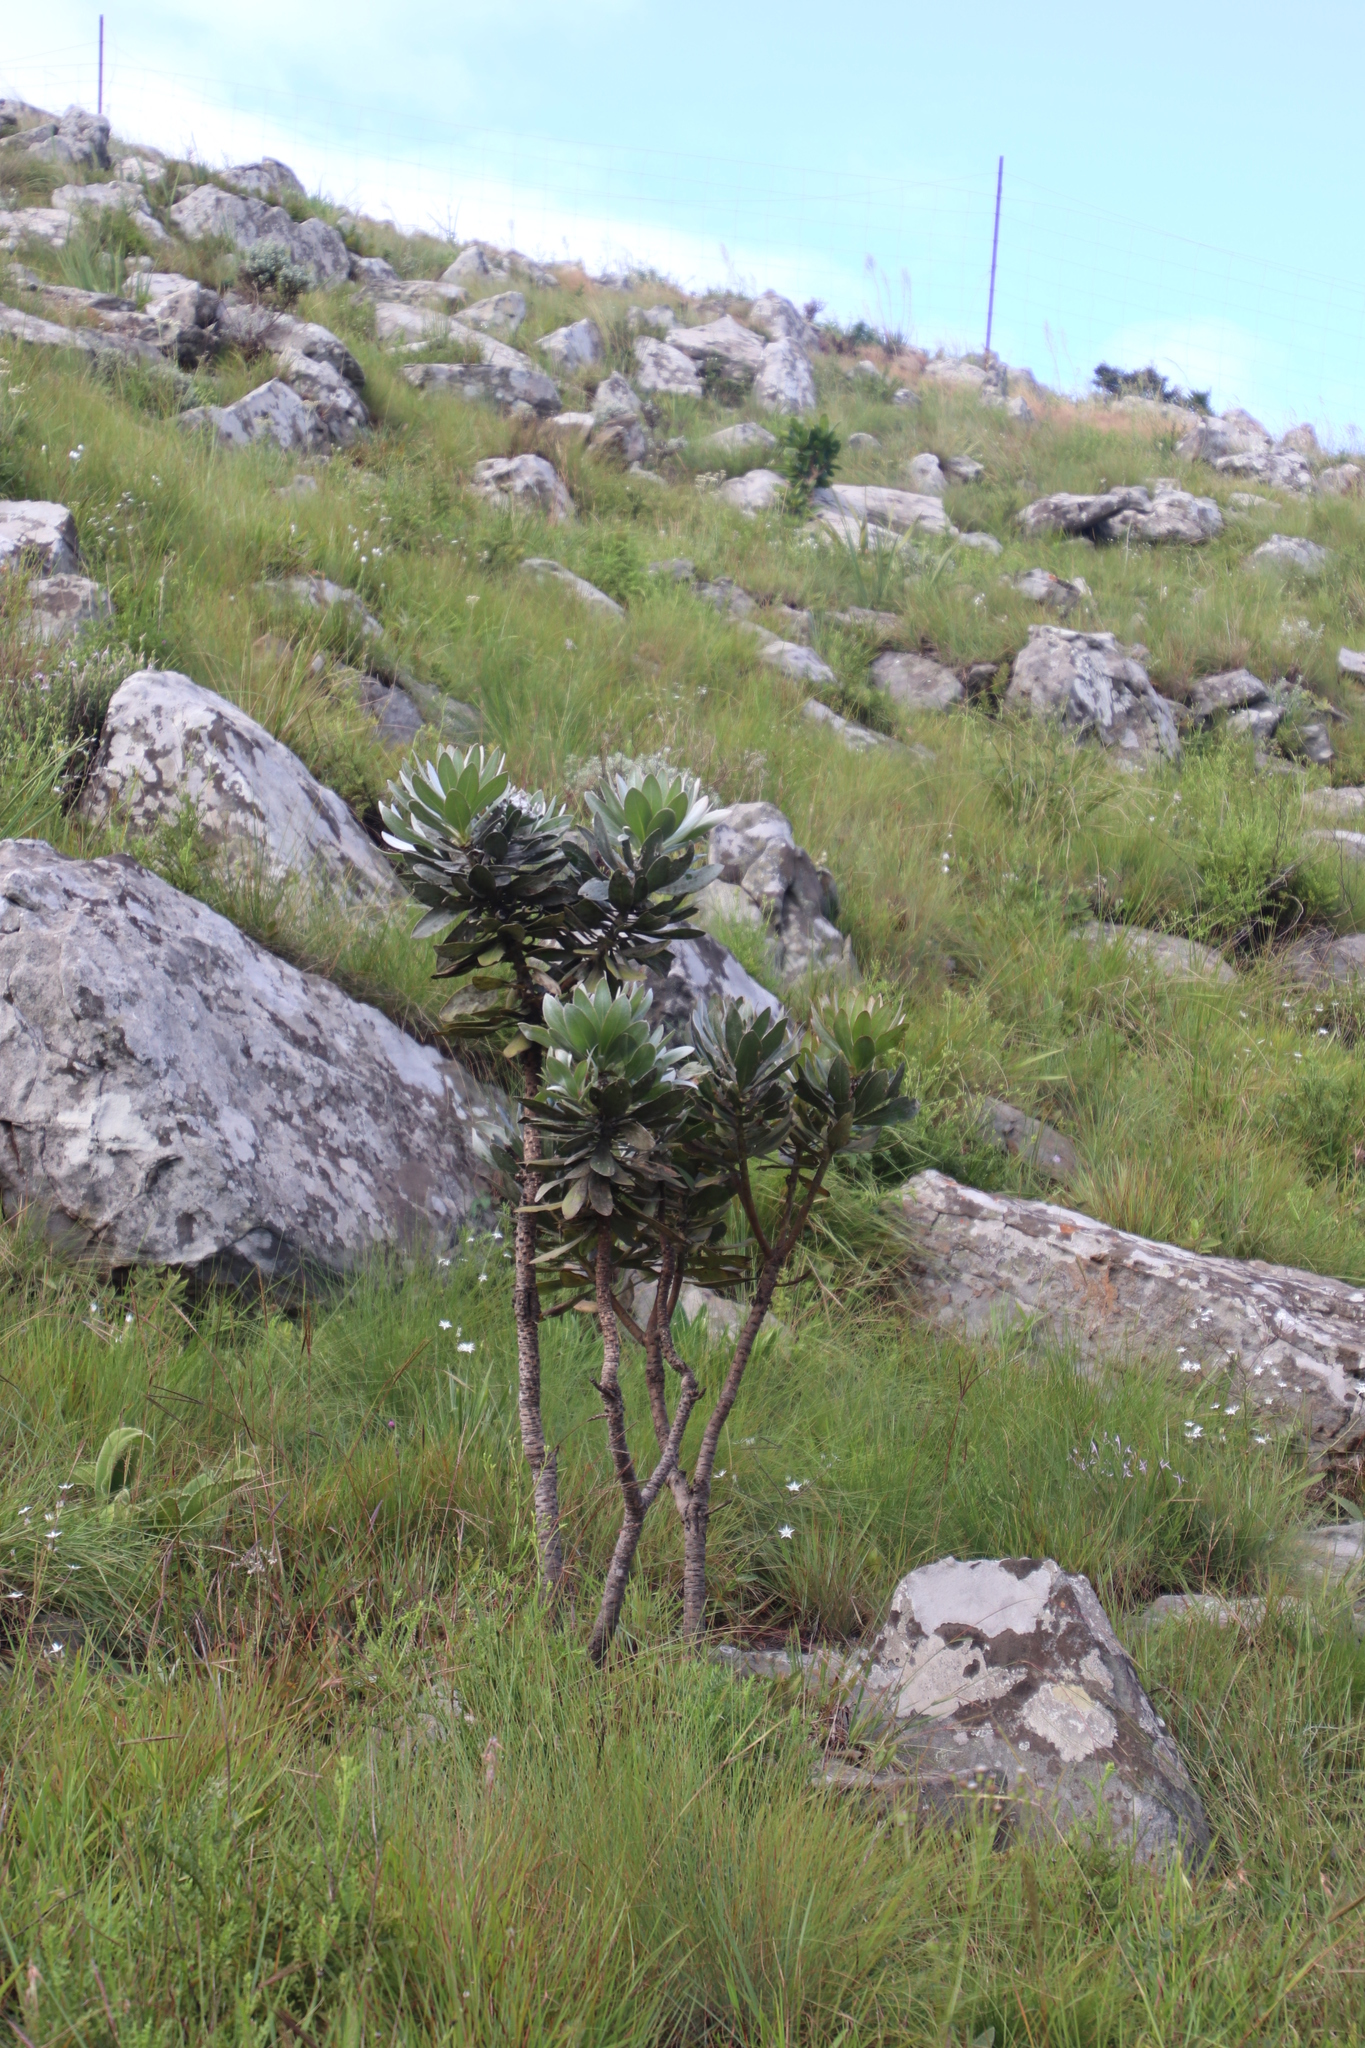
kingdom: Plantae
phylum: Tracheophyta
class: Magnoliopsida
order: Proteales
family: Proteaceae
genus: Protea
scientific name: Protea roupelliae
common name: Silver sugarbush
